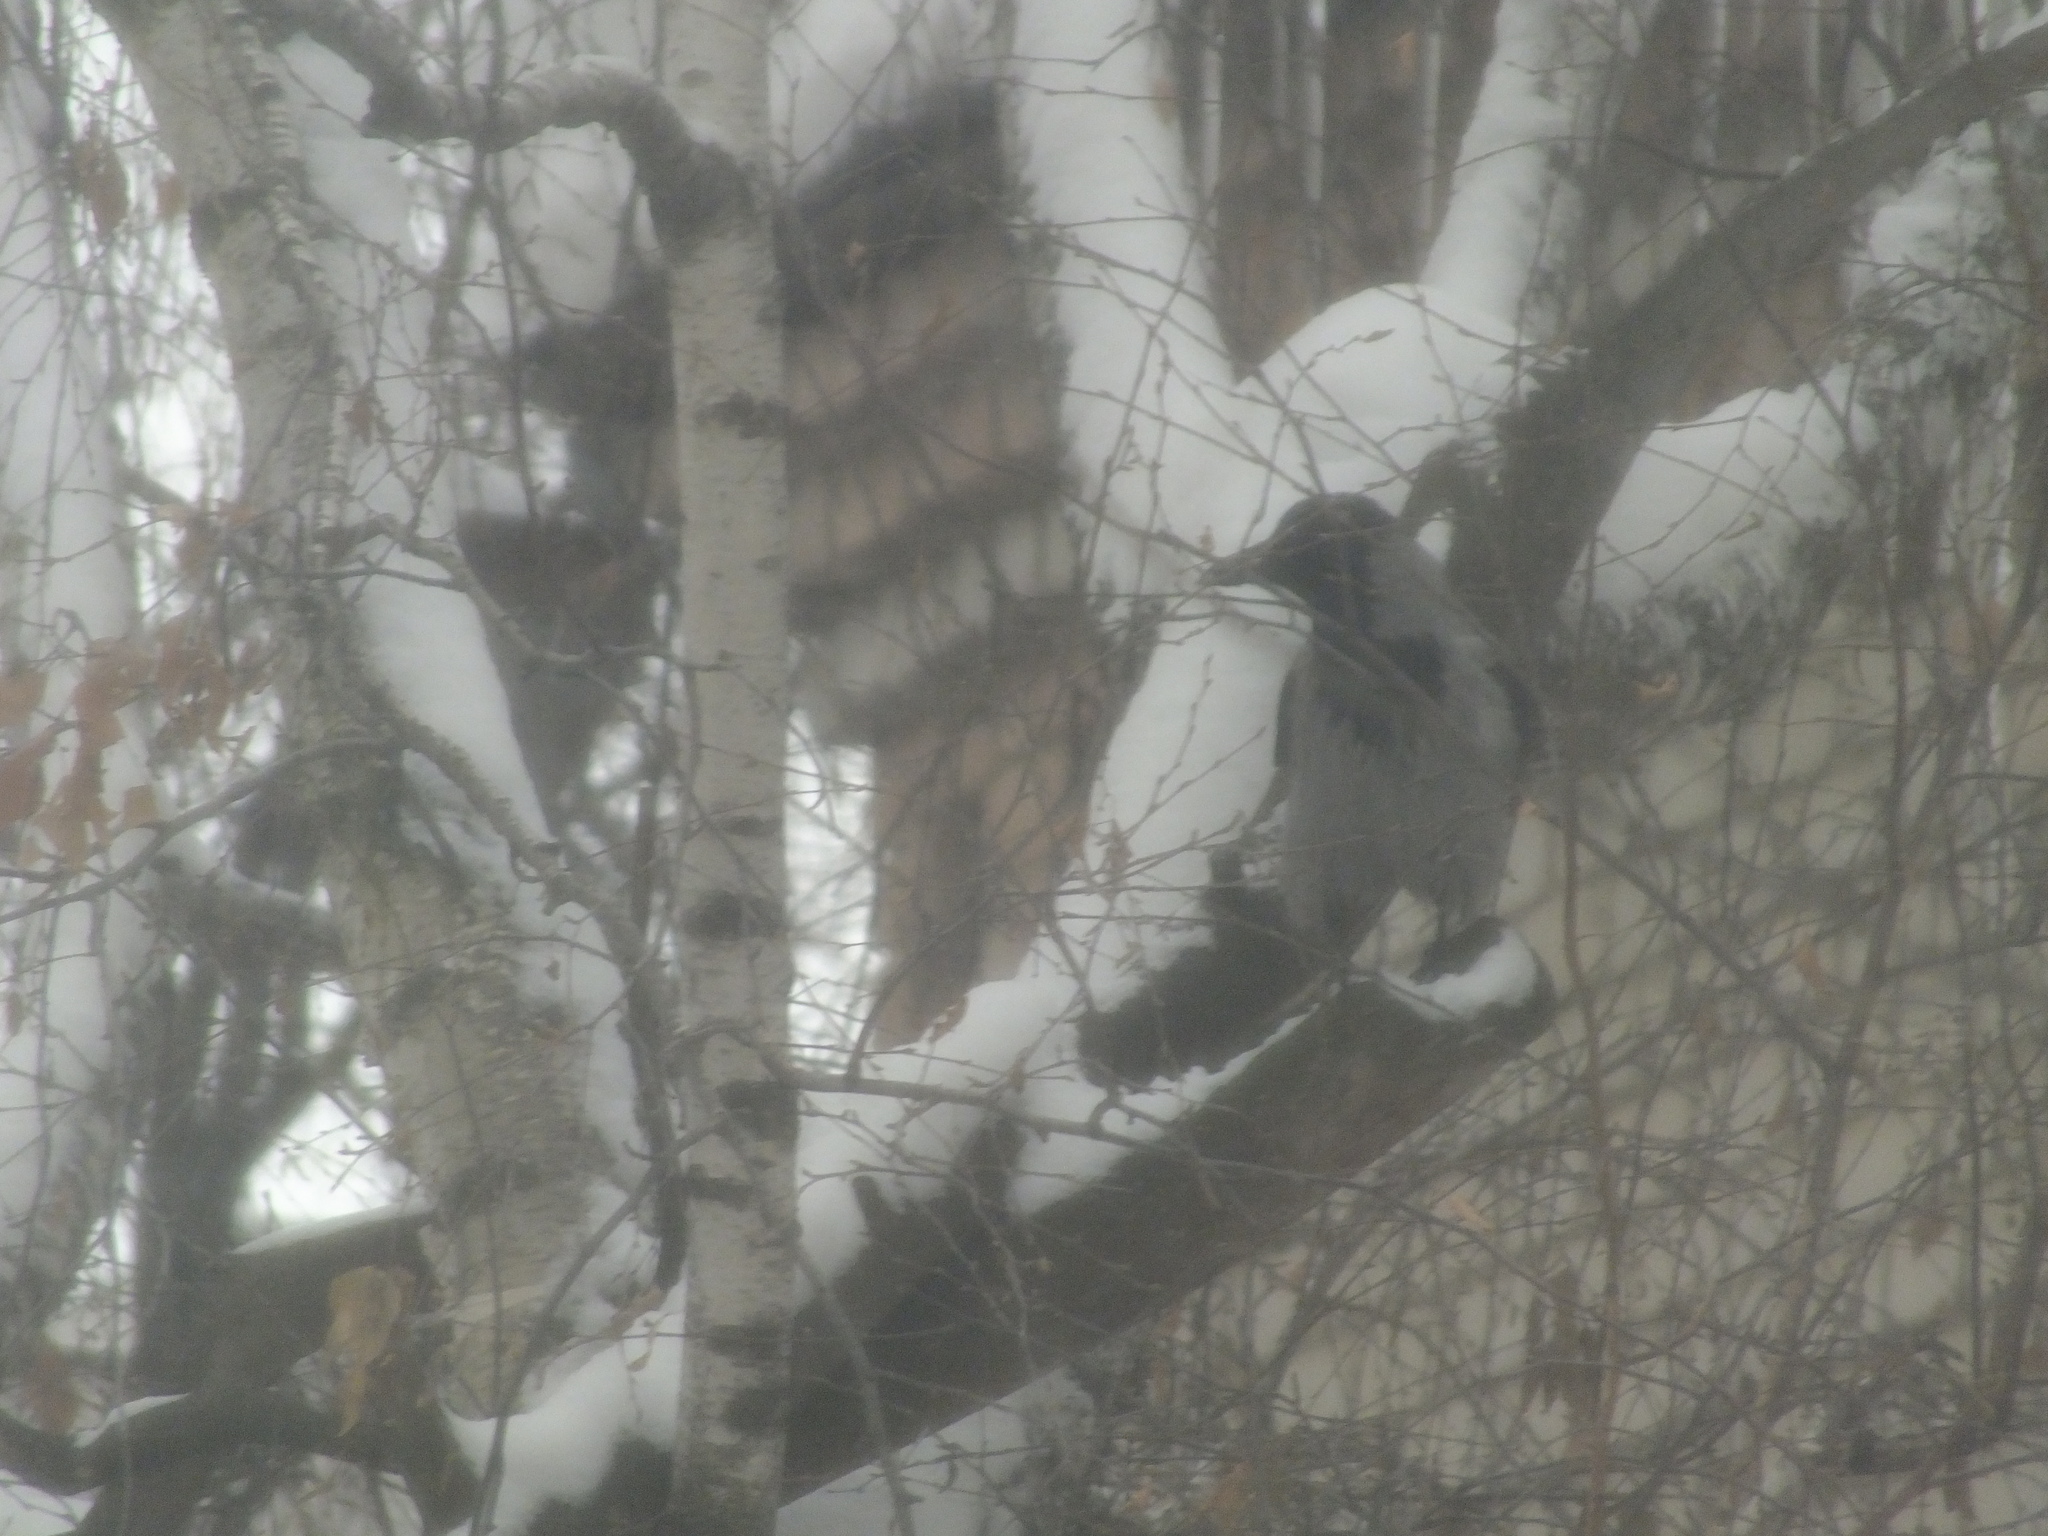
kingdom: Animalia
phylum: Chordata
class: Aves
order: Passeriformes
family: Corvidae
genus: Corvus
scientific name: Corvus cornix
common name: Hooded crow
